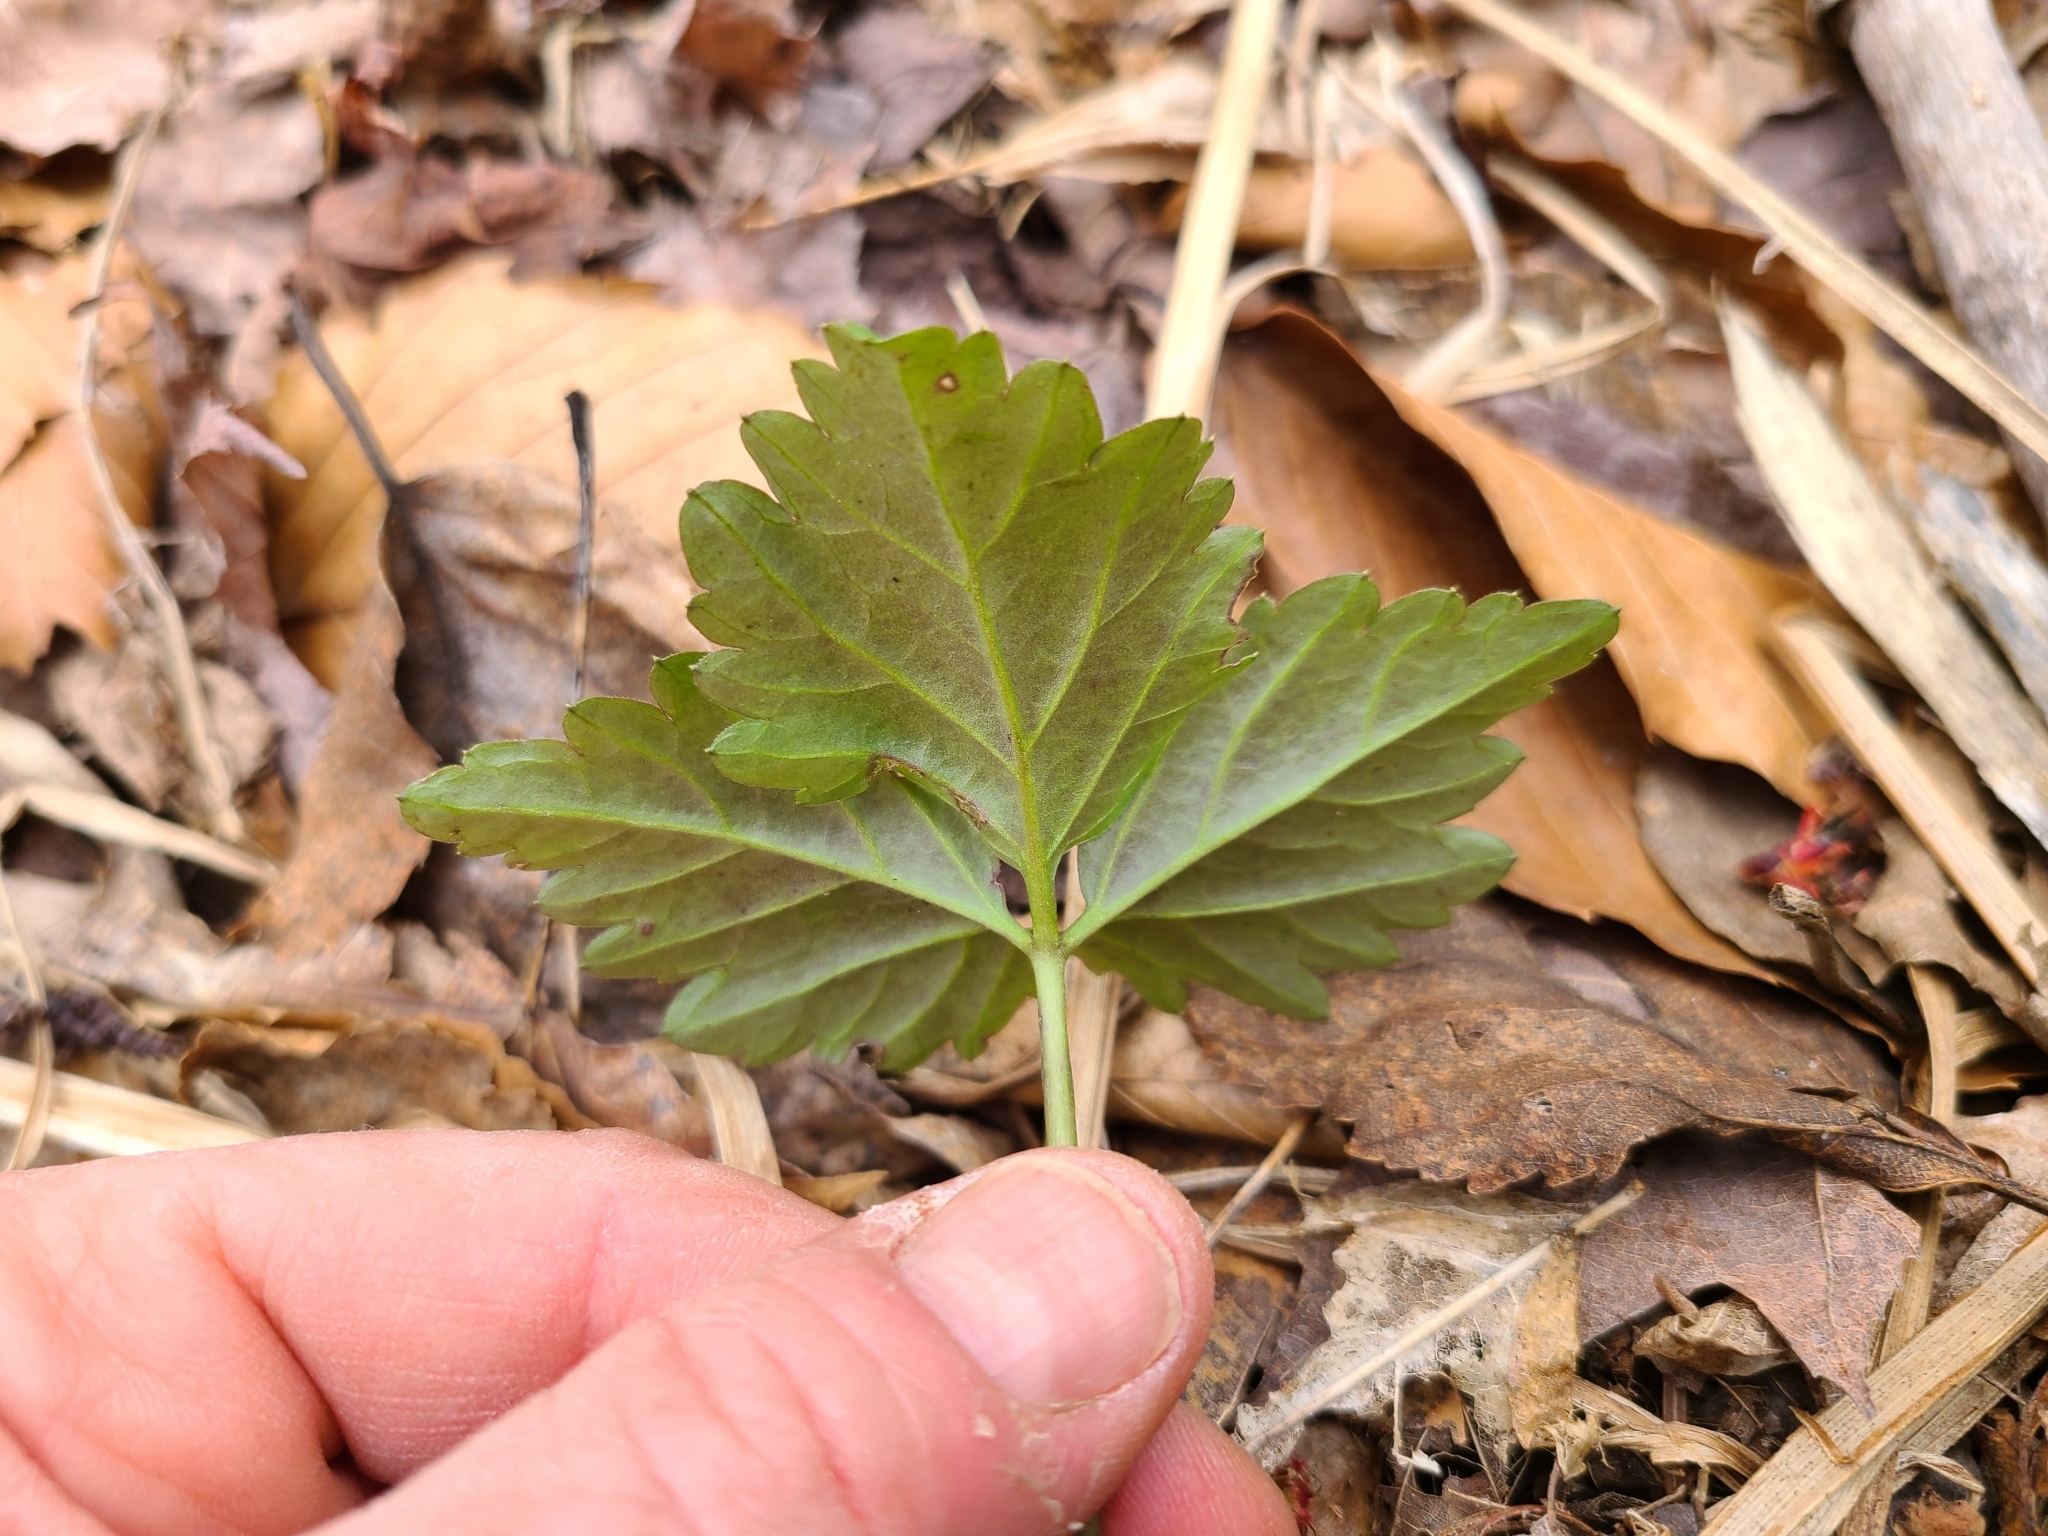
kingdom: Plantae
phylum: Tracheophyta
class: Magnoliopsida
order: Brassicales
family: Brassicaceae
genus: Cardamine
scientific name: Cardamine diphylla
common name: Broad-leaved toothwort
